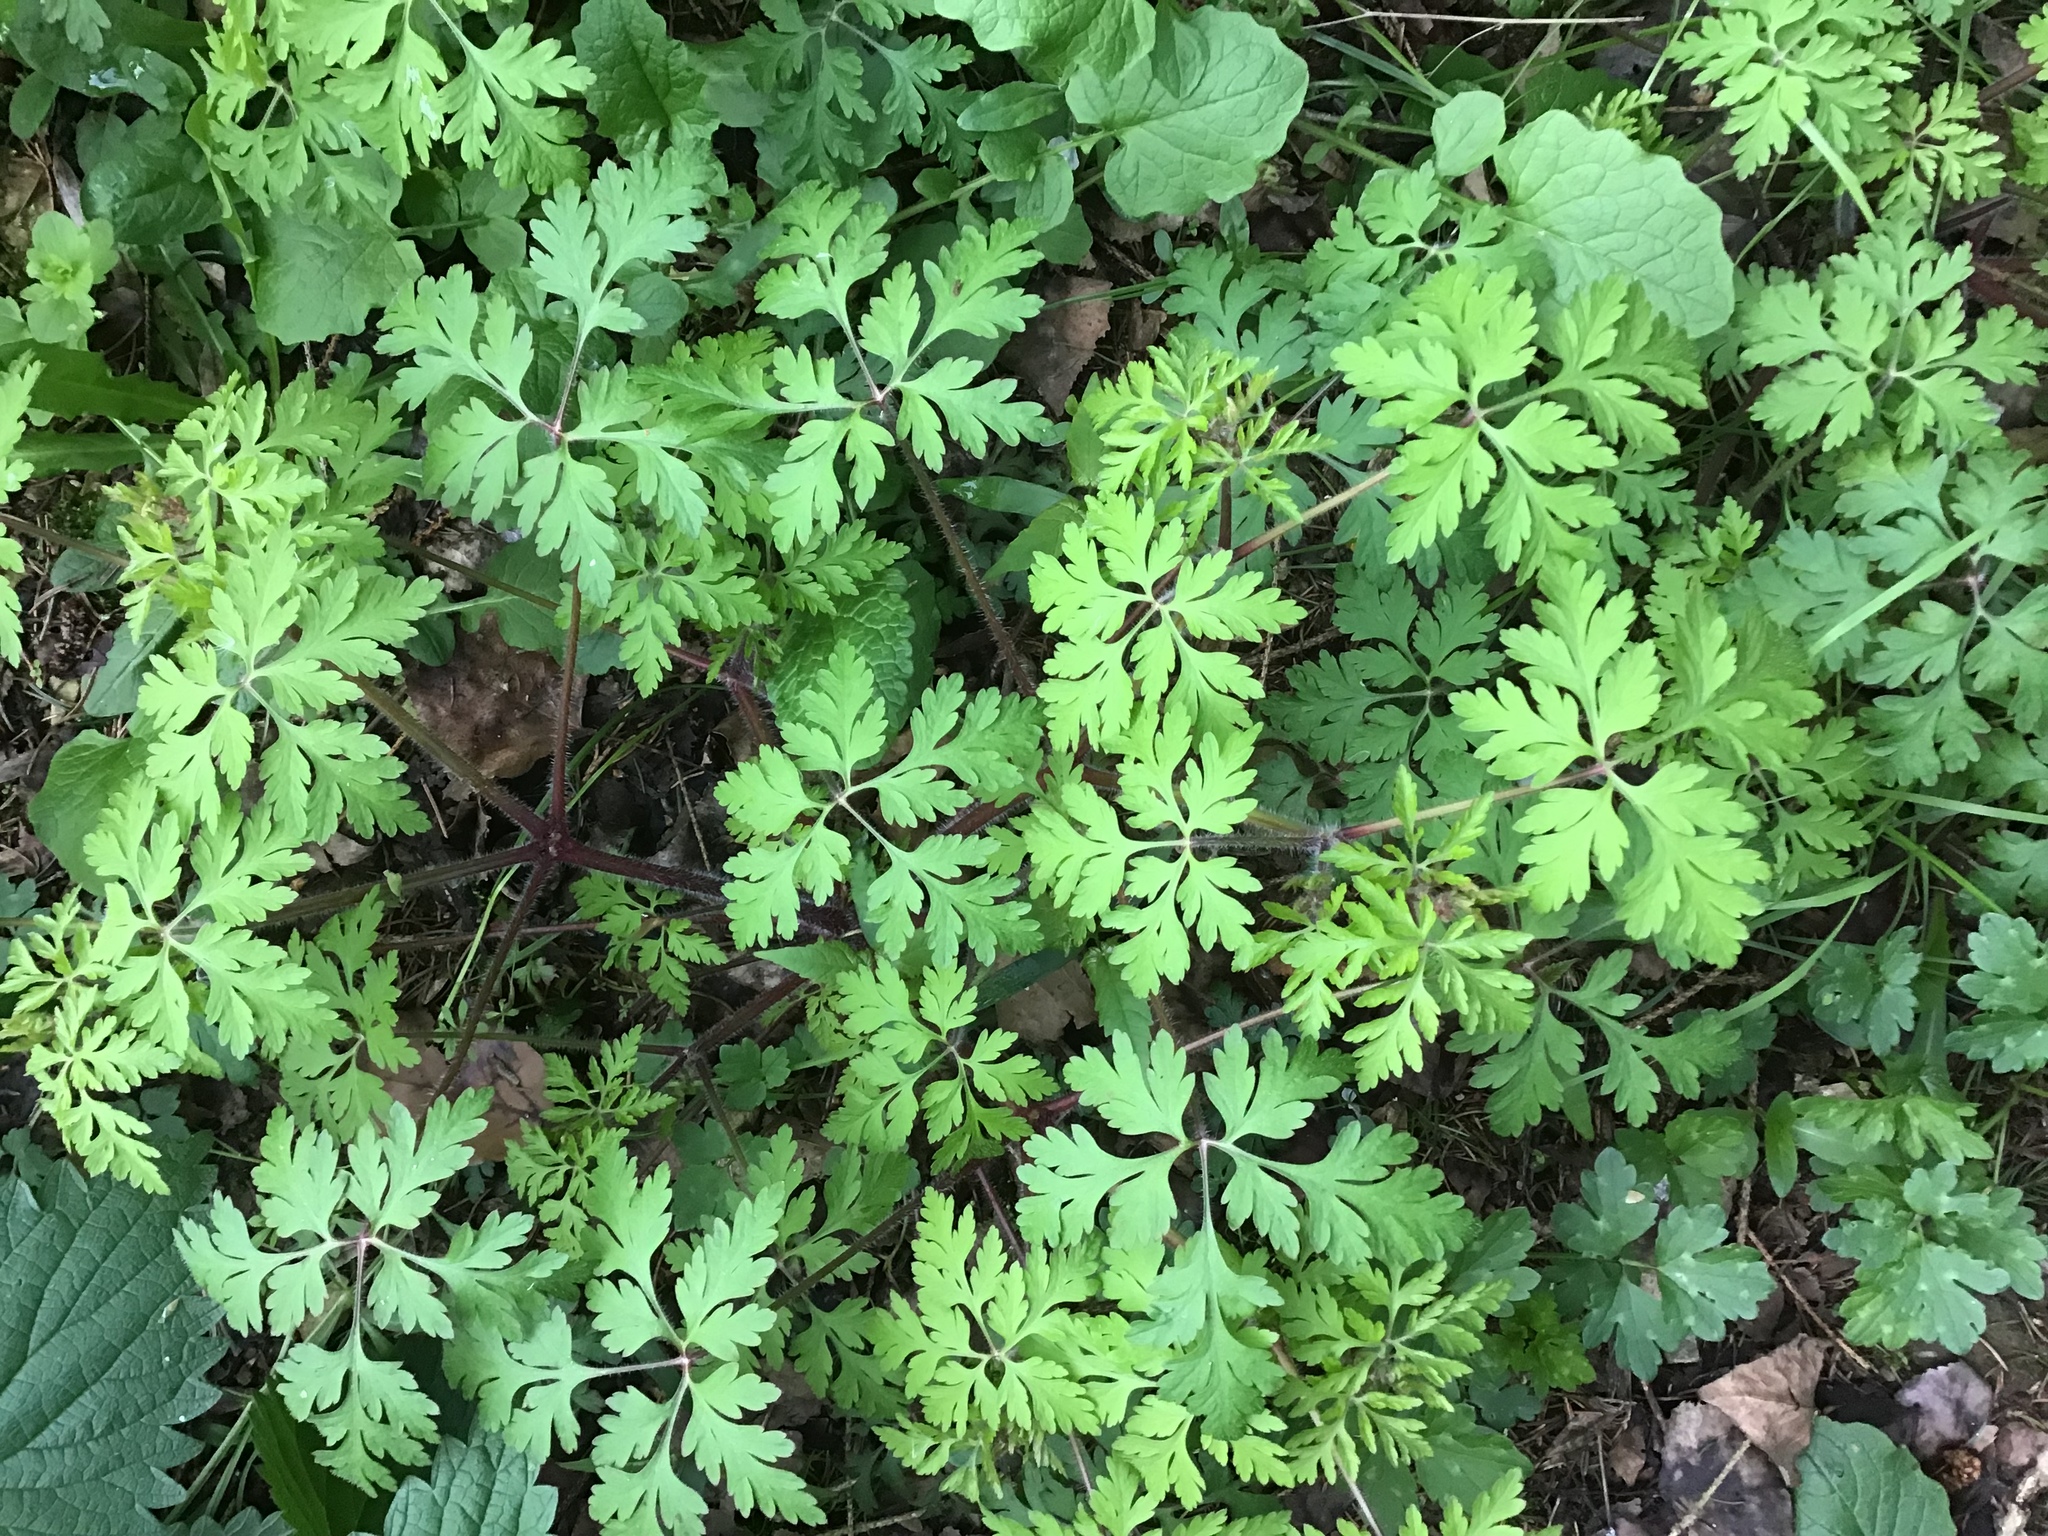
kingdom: Plantae
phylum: Tracheophyta
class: Magnoliopsida
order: Geraniales
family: Geraniaceae
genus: Geranium
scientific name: Geranium robertianum
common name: Herb-robert
